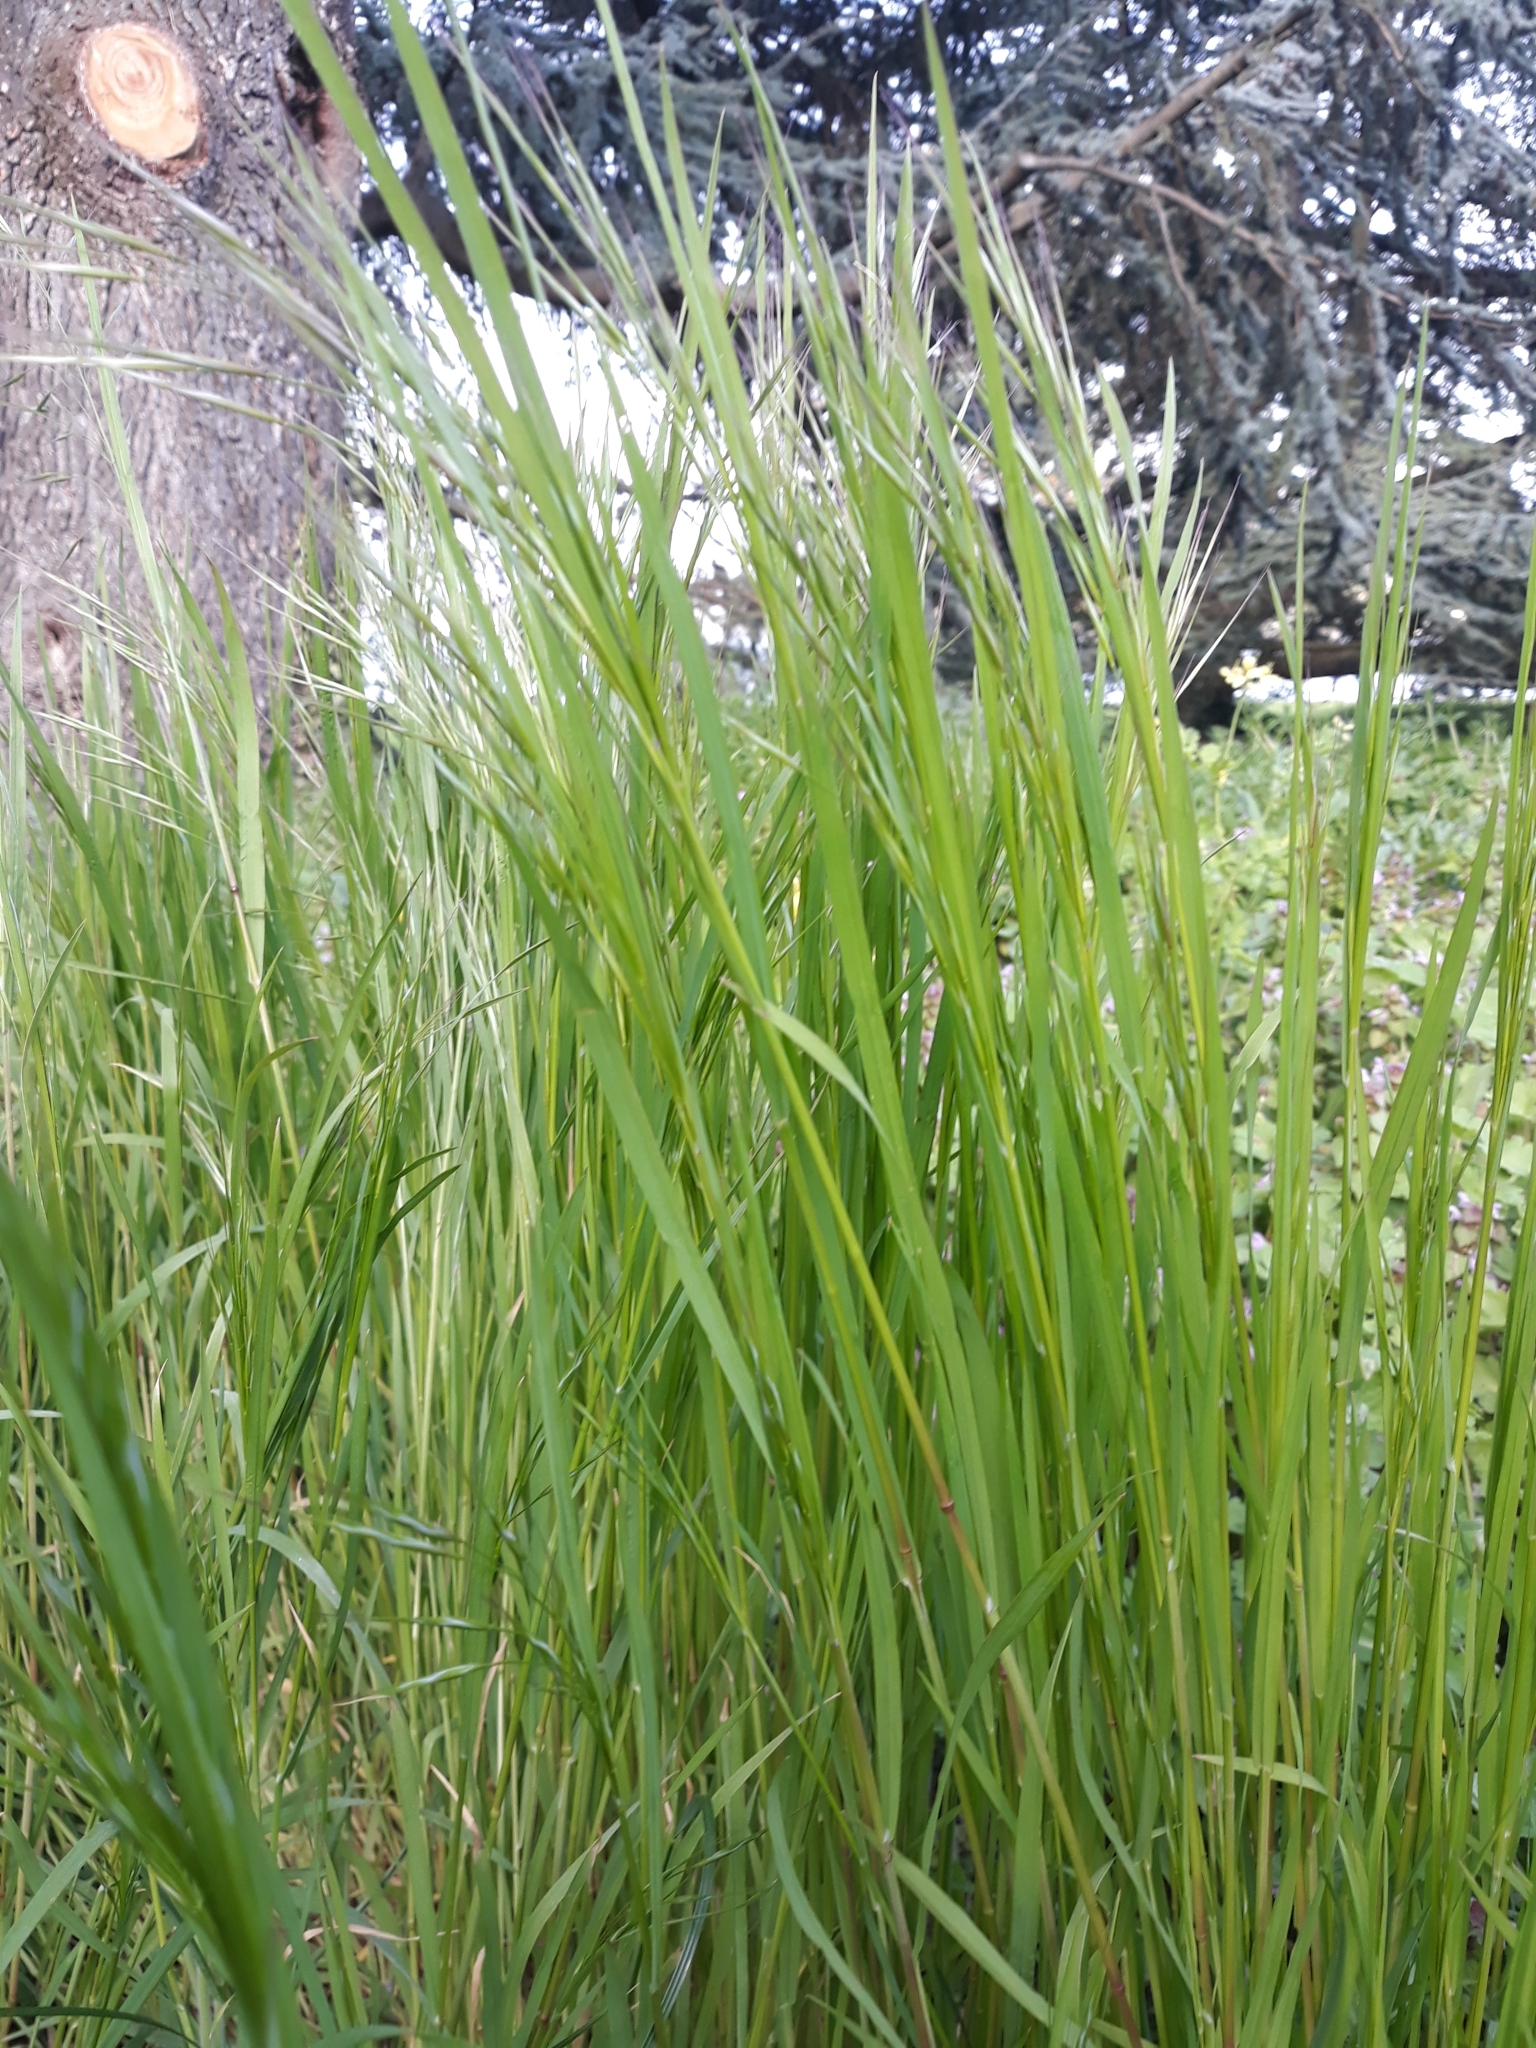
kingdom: Plantae
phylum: Tracheophyta
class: Liliopsida
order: Poales
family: Poaceae
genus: Bromus
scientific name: Bromus sterilis
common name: Poverty brome
